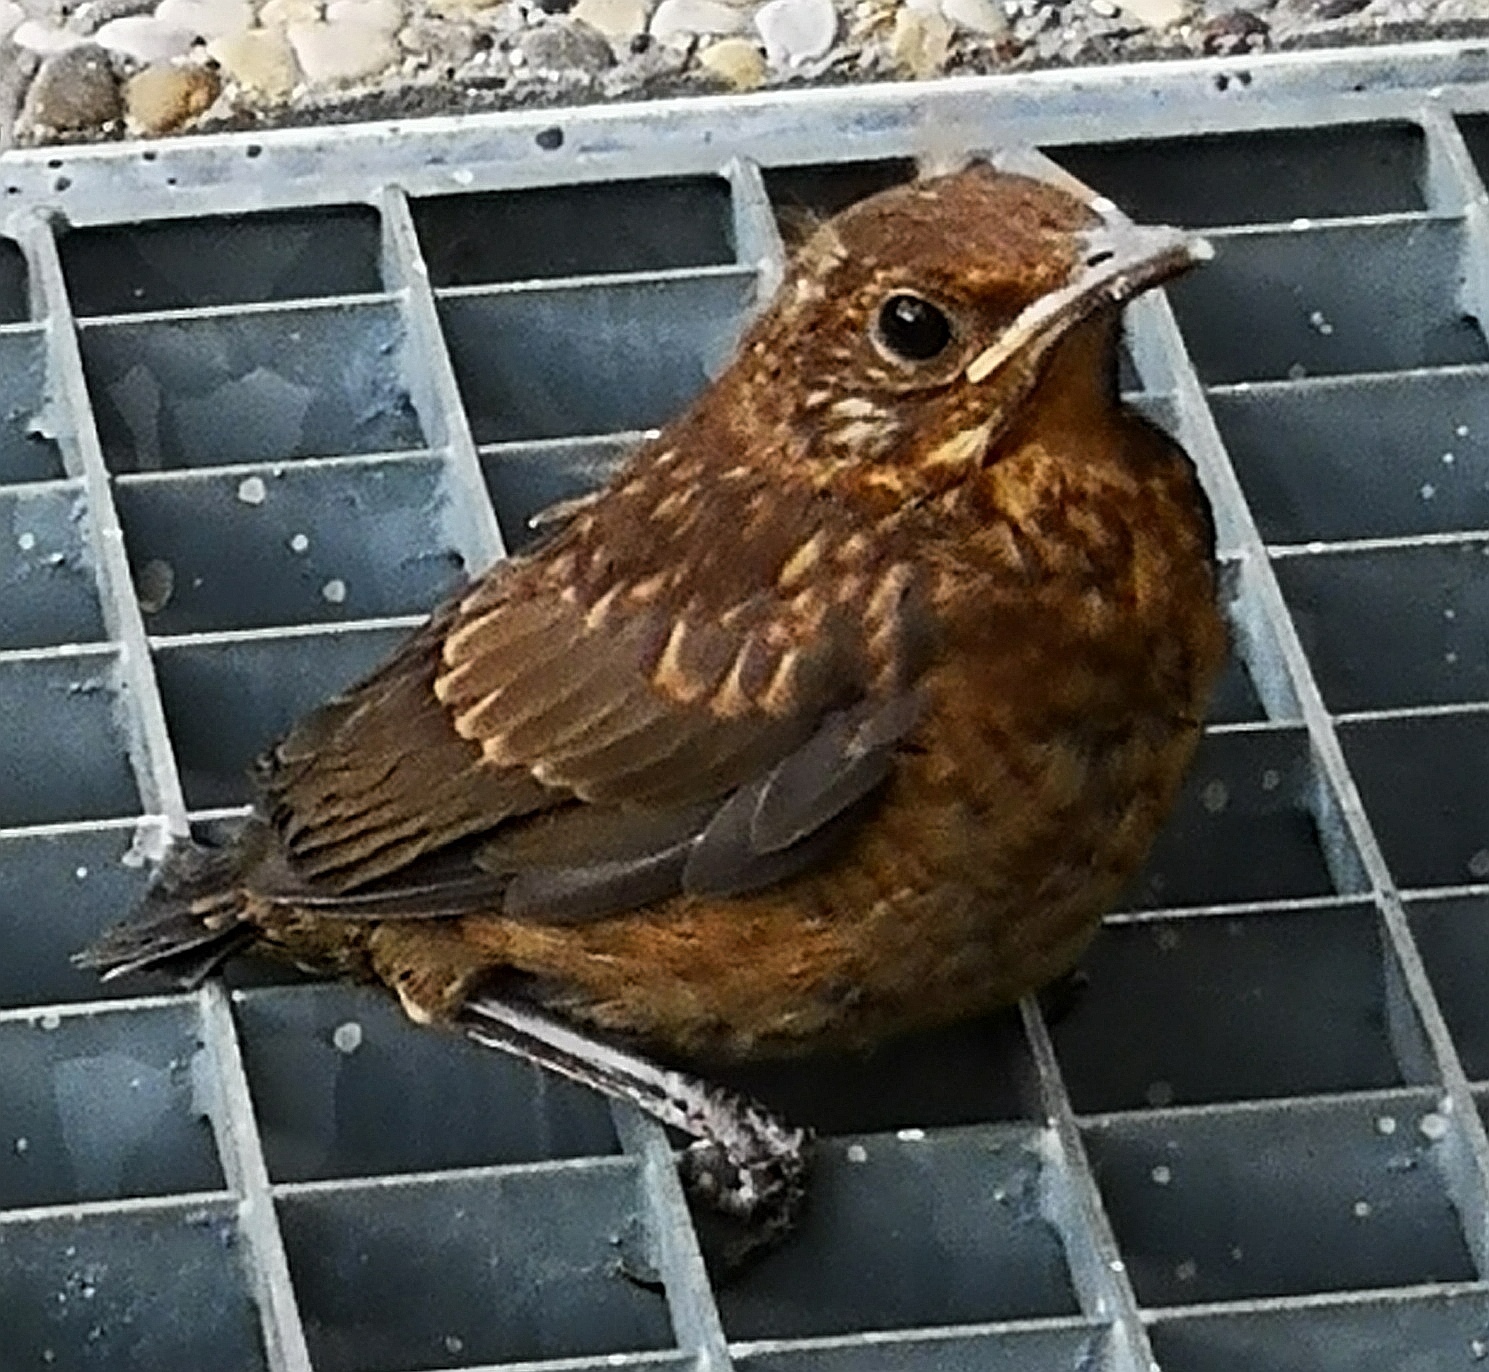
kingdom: Animalia
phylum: Chordata
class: Aves
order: Passeriformes
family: Turdidae
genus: Turdus
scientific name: Turdus merula
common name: Common blackbird
